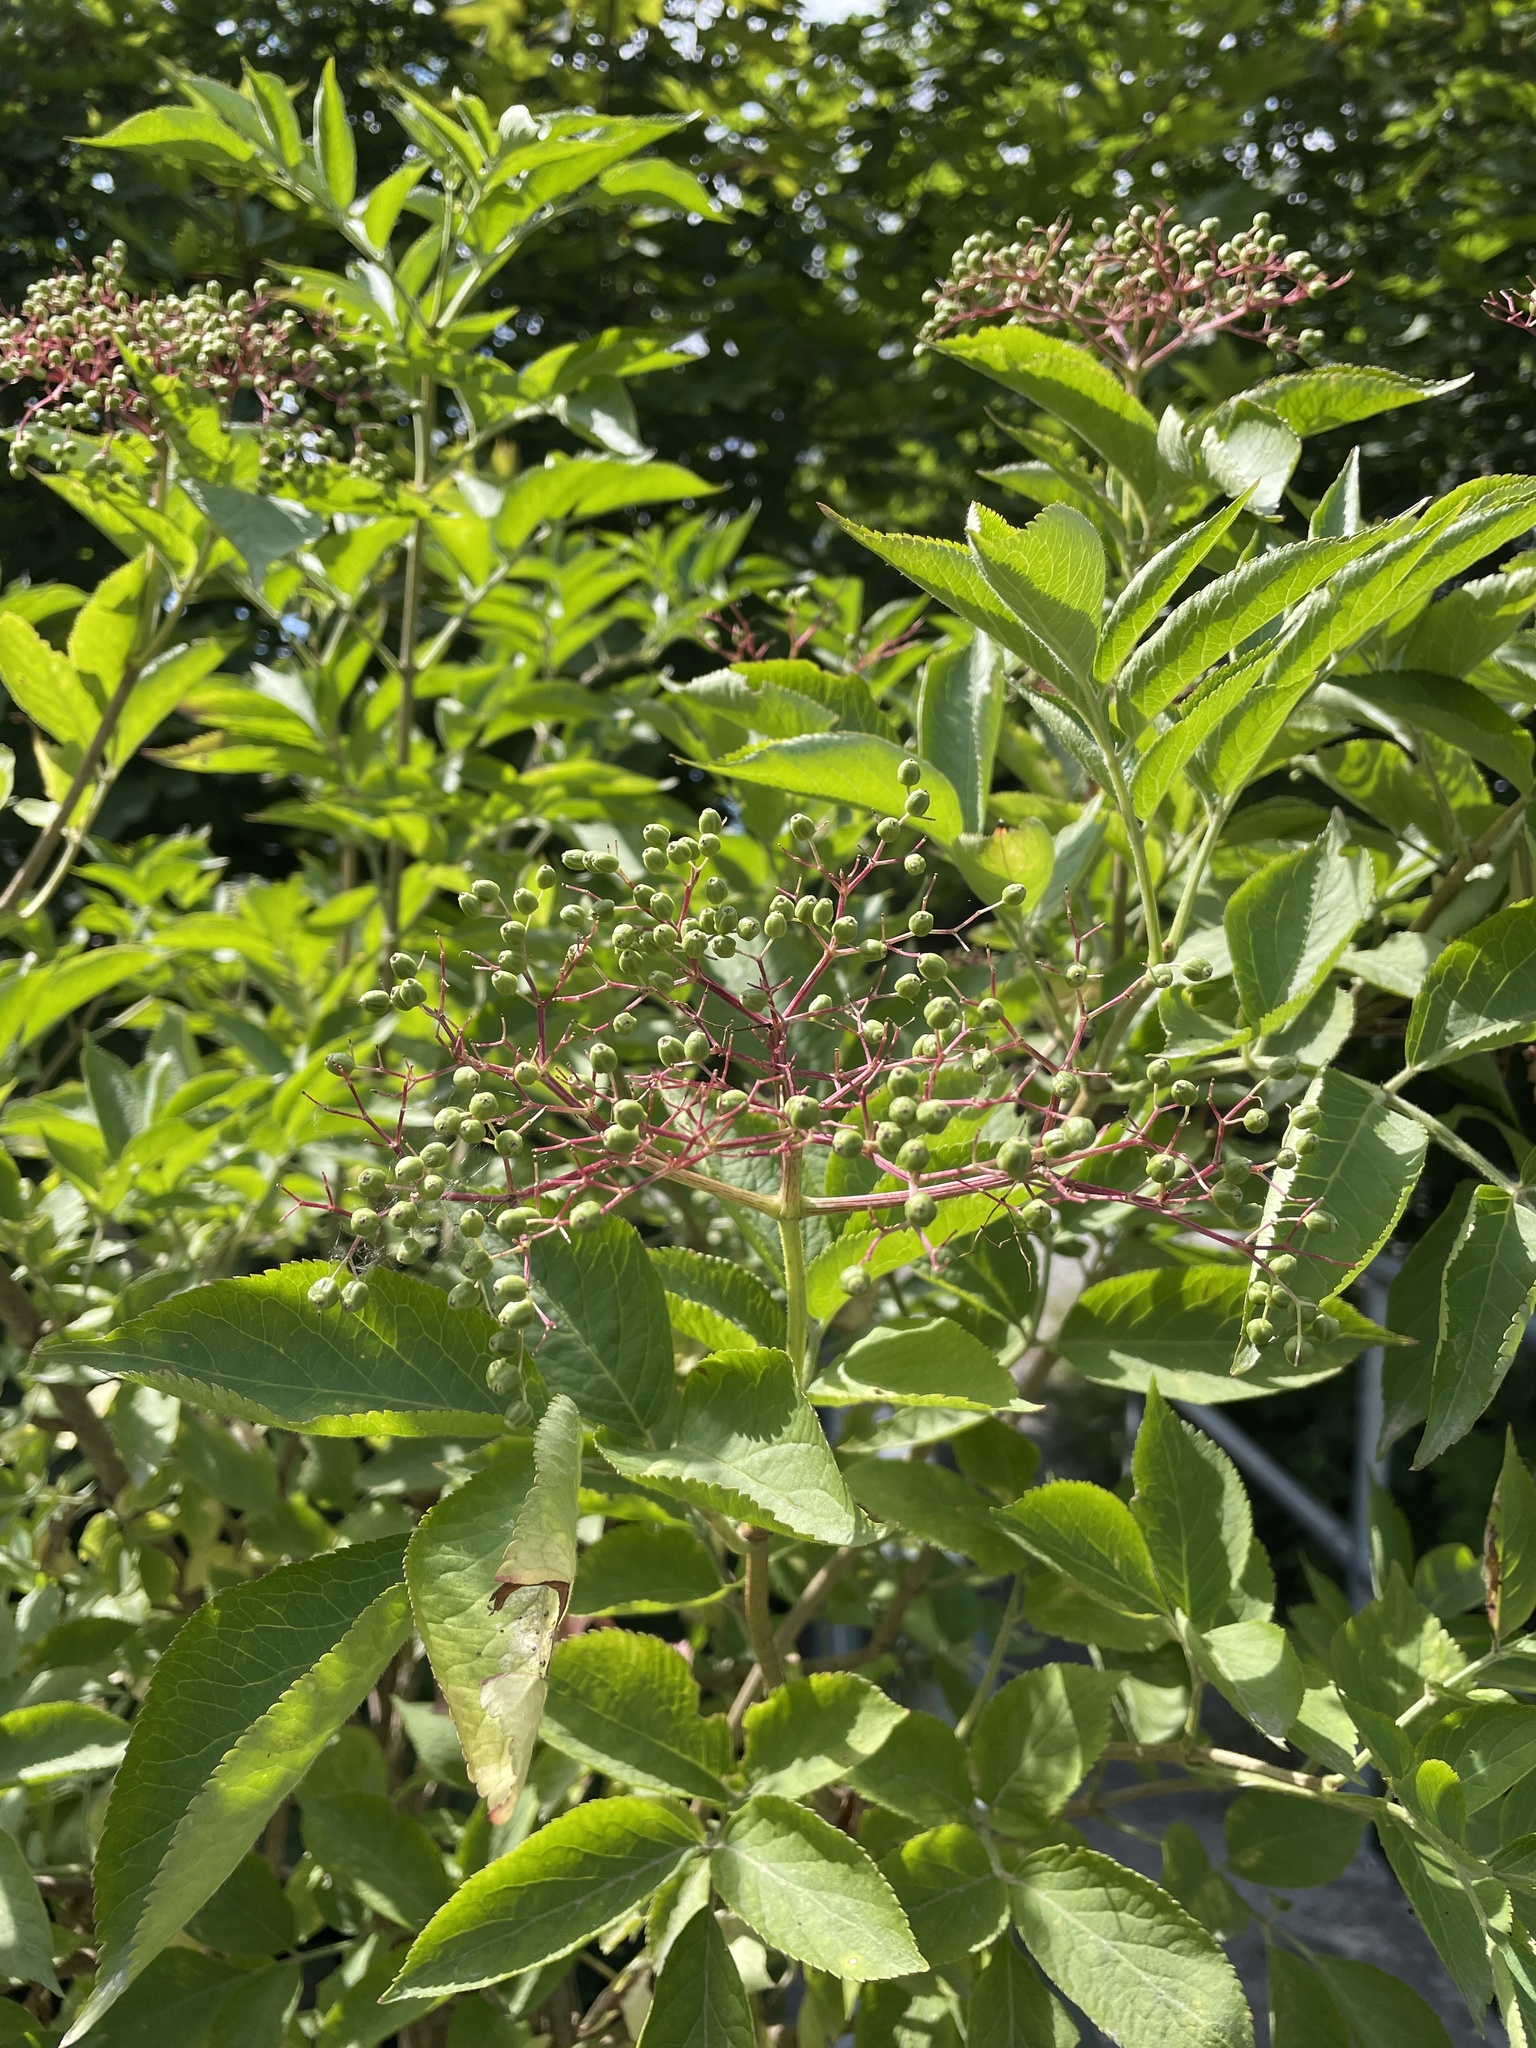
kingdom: Plantae
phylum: Tracheophyta
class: Magnoliopsida
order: Dipsacales
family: Viburnaceae
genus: Sambucus
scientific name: Sambucus nigra
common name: Elder
